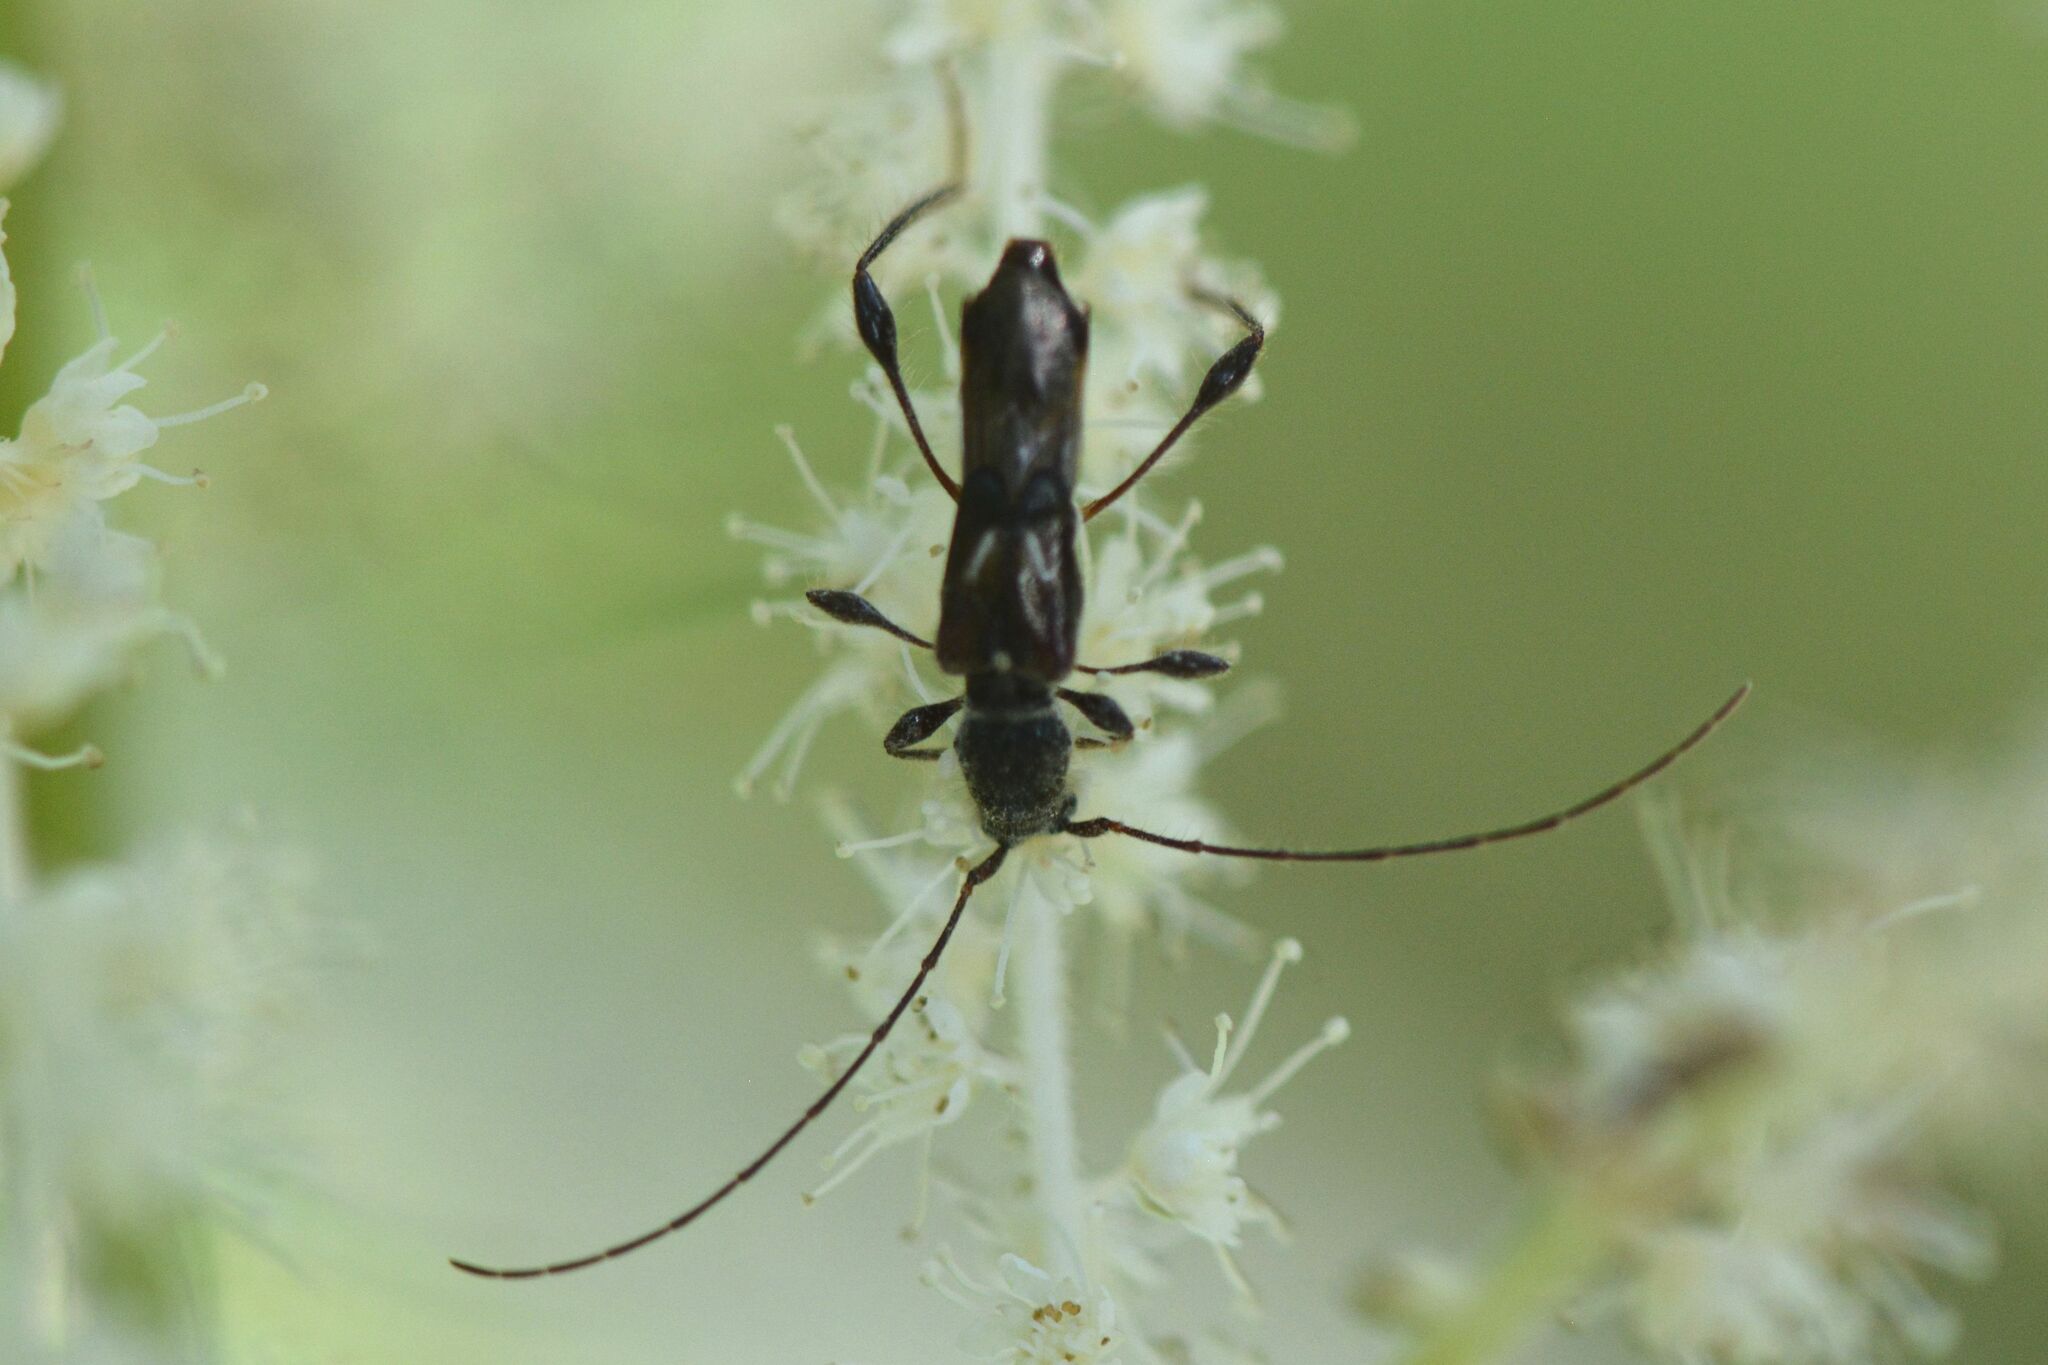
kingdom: Animalia
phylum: Arthropoda
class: Insecta
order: Coleoptera
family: Cerambycidae
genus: Molorchus
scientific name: Molorchus minor
